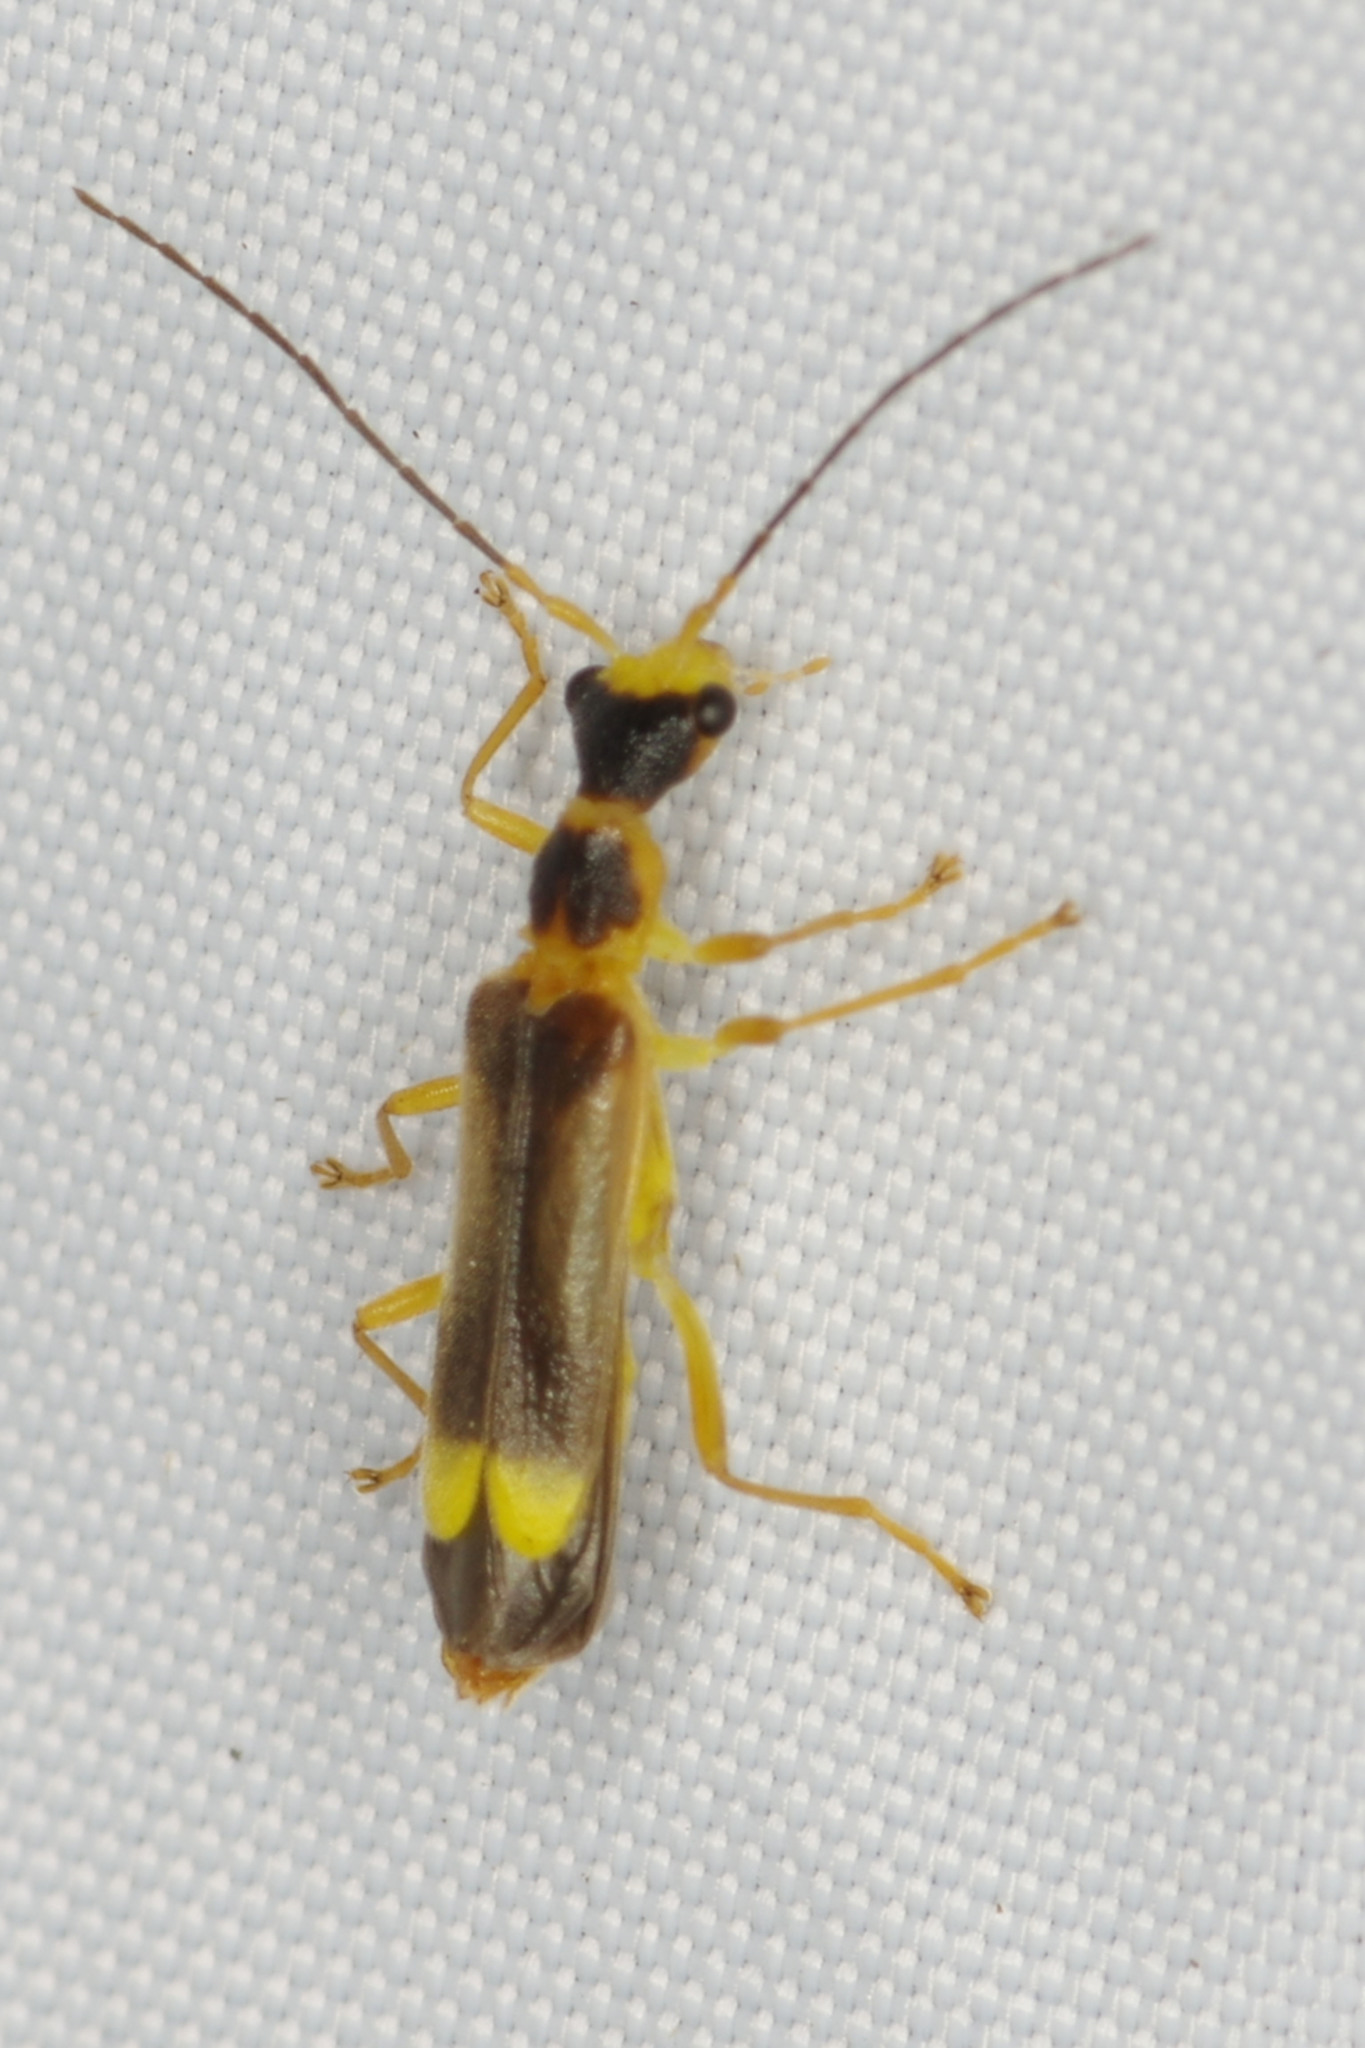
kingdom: Animalia
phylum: Arthropoda
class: Insecta
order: Coleoptera
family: Cantharidae
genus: Malthinus
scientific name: Malthinus flaveolus
